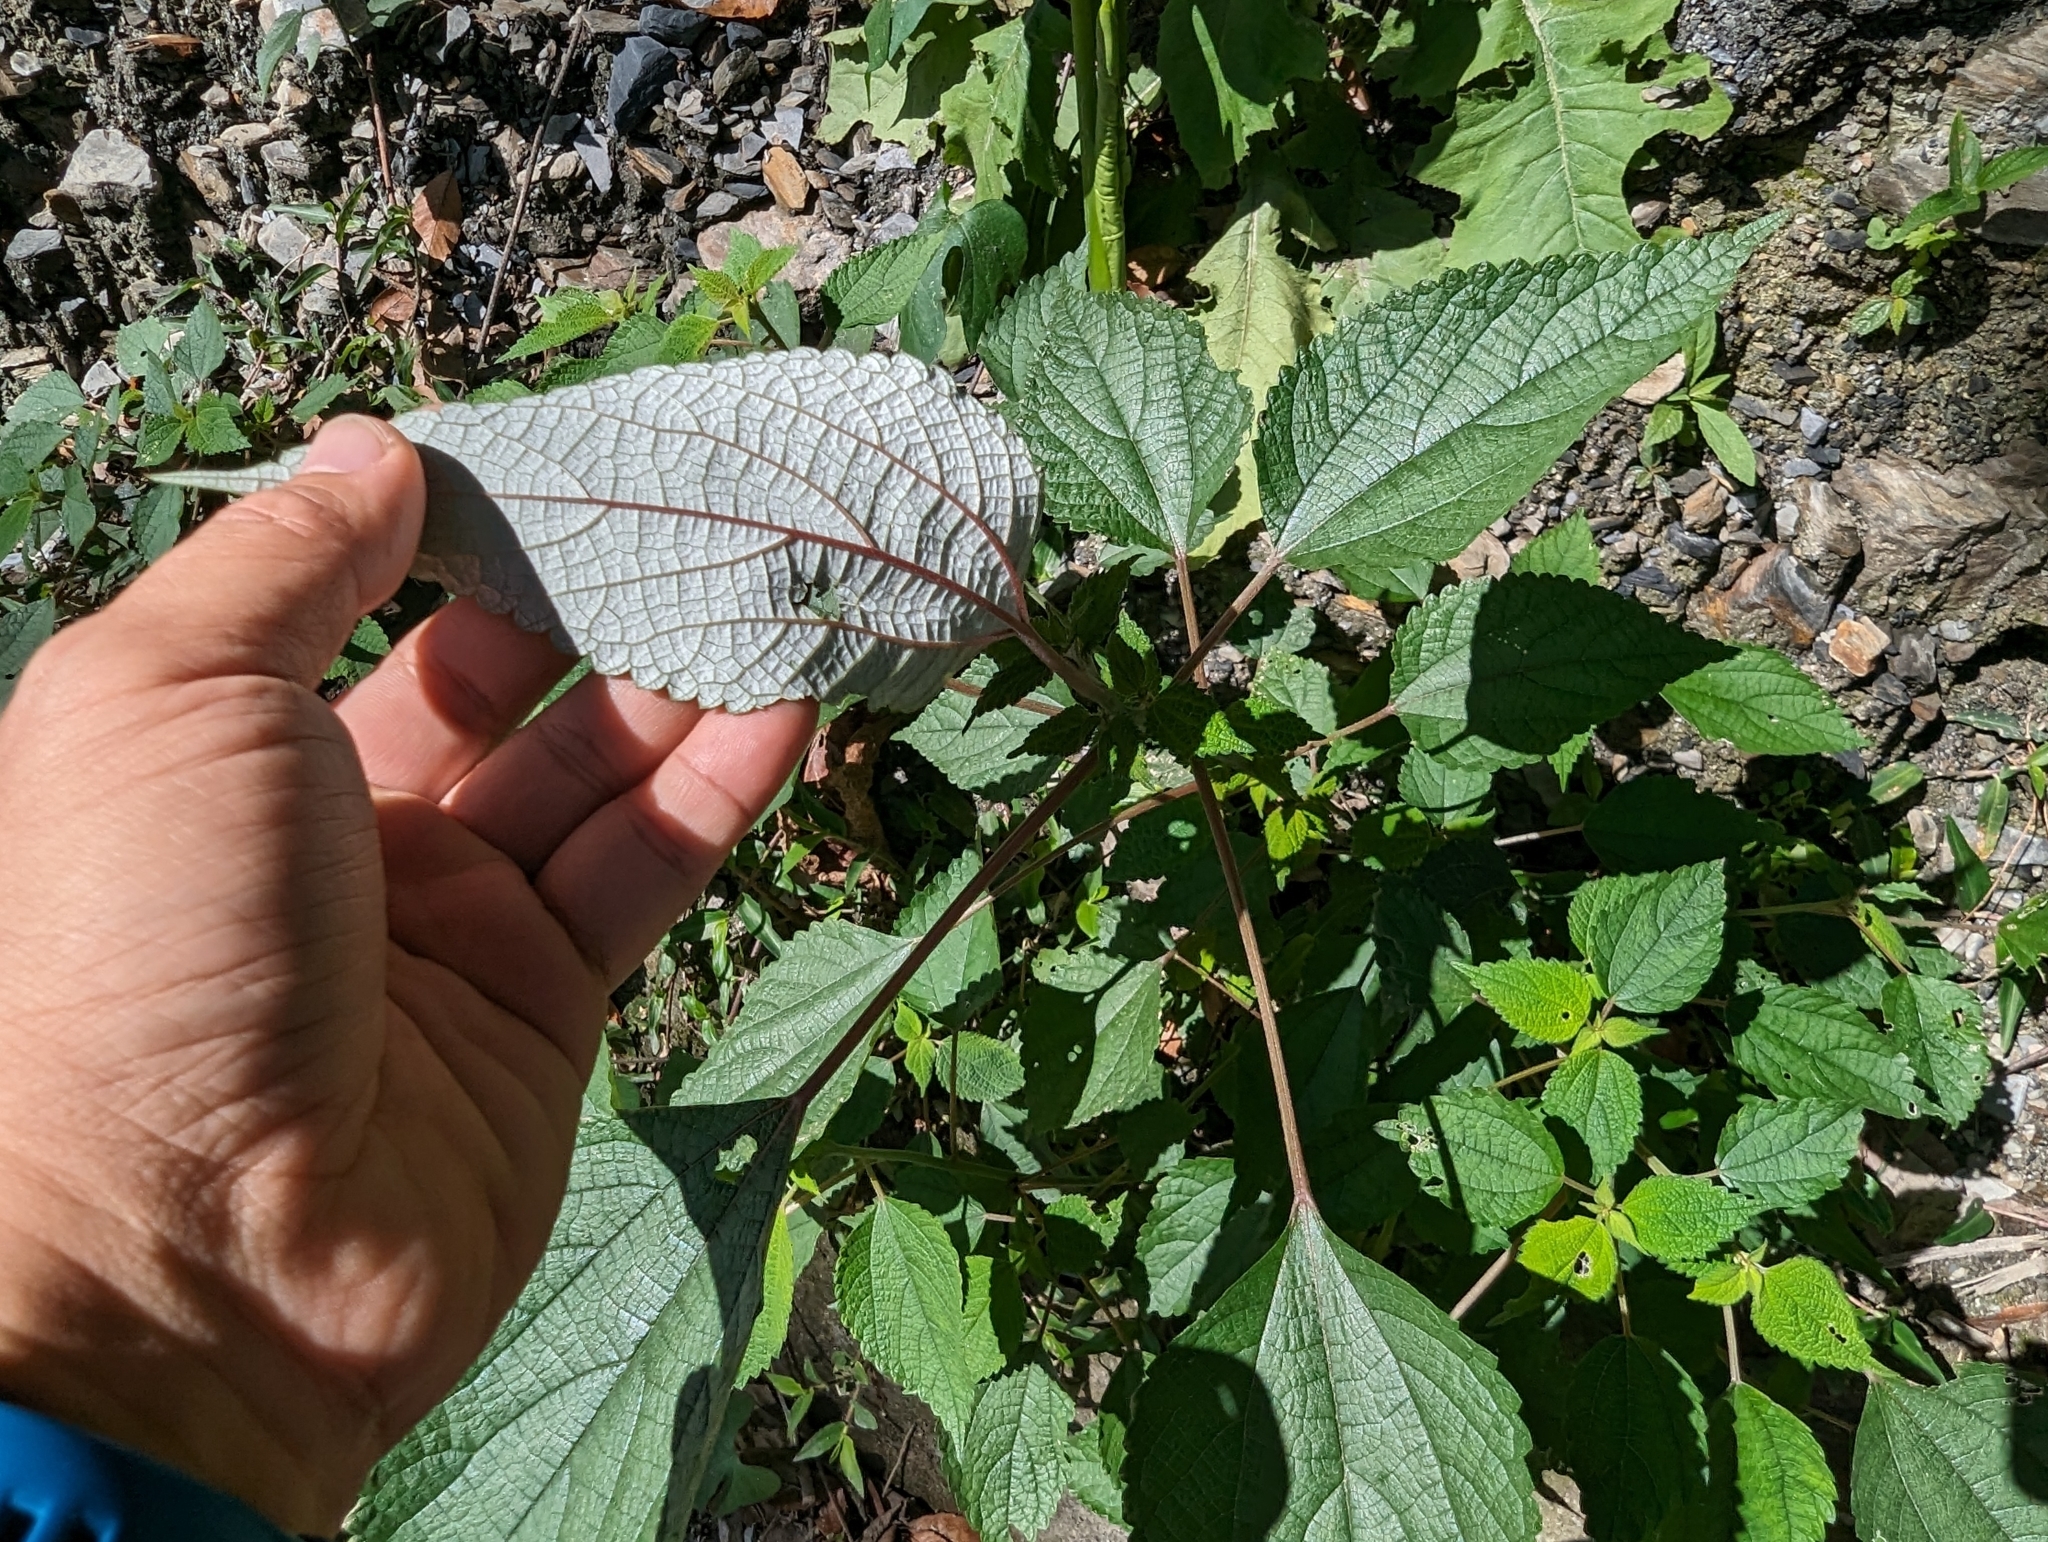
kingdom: Plantae
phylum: Tracheophyta
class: Magnoliopsida
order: Rosales
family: Urticaceae
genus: Boehmeria
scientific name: Boehmeria nivea
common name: Ramie chinese grass
